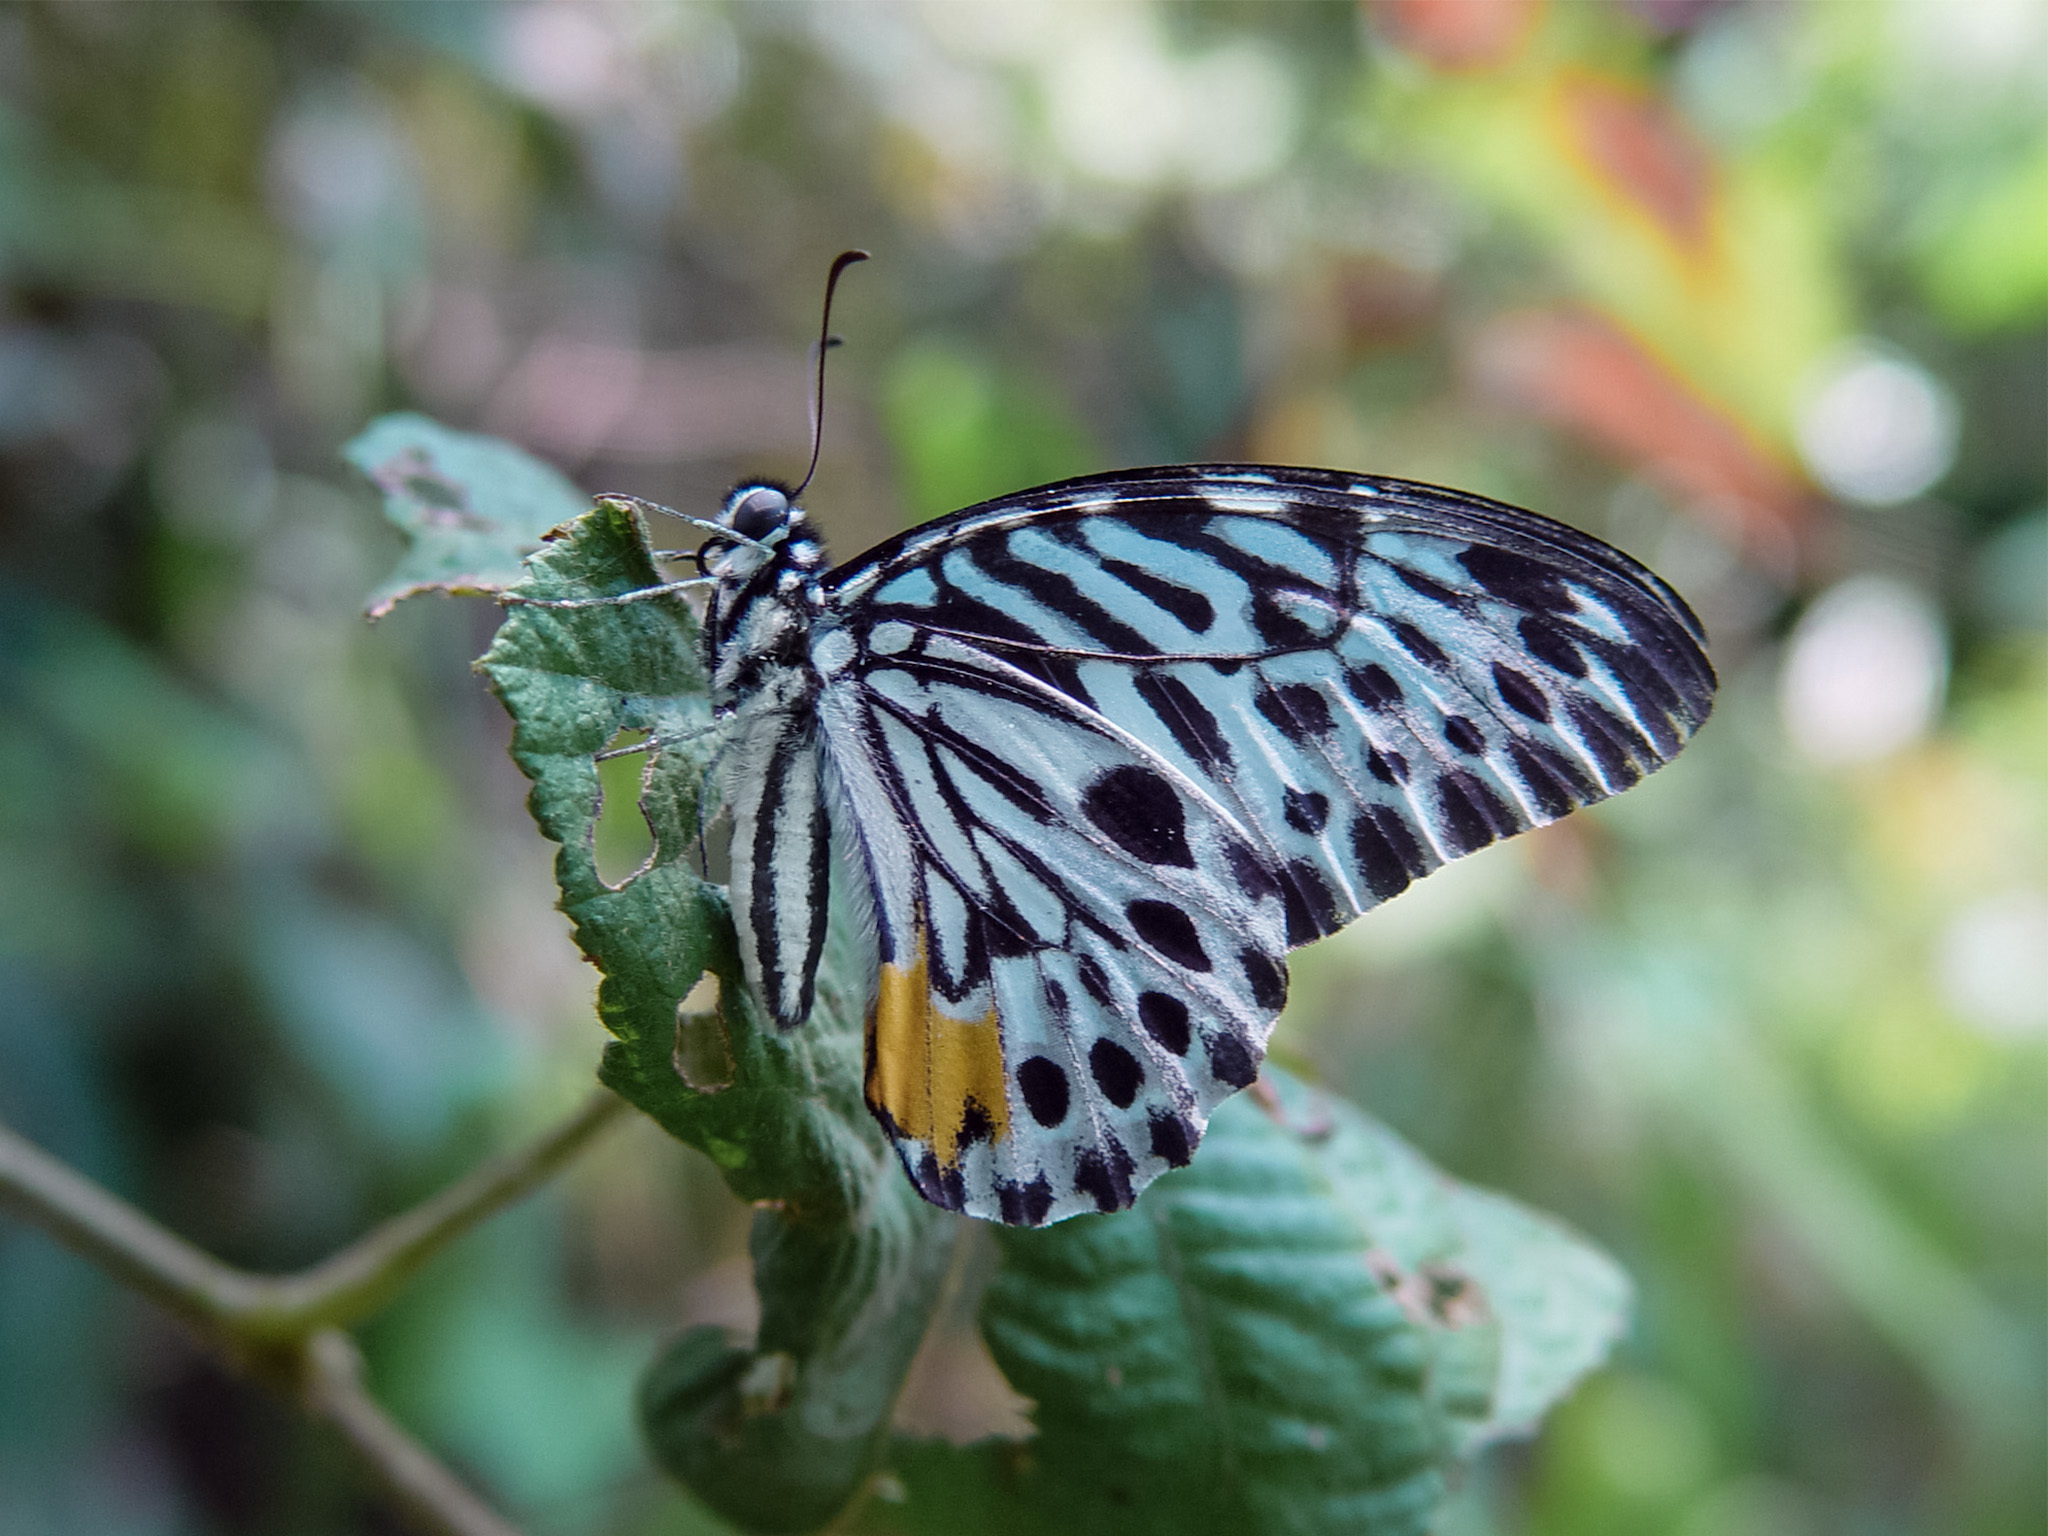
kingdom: Animalia
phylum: Arthropoda
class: Insecta
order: Lepidoptera
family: Papilionidae
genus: Graphium
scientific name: Graphium delesserti
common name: Malayan zebra
